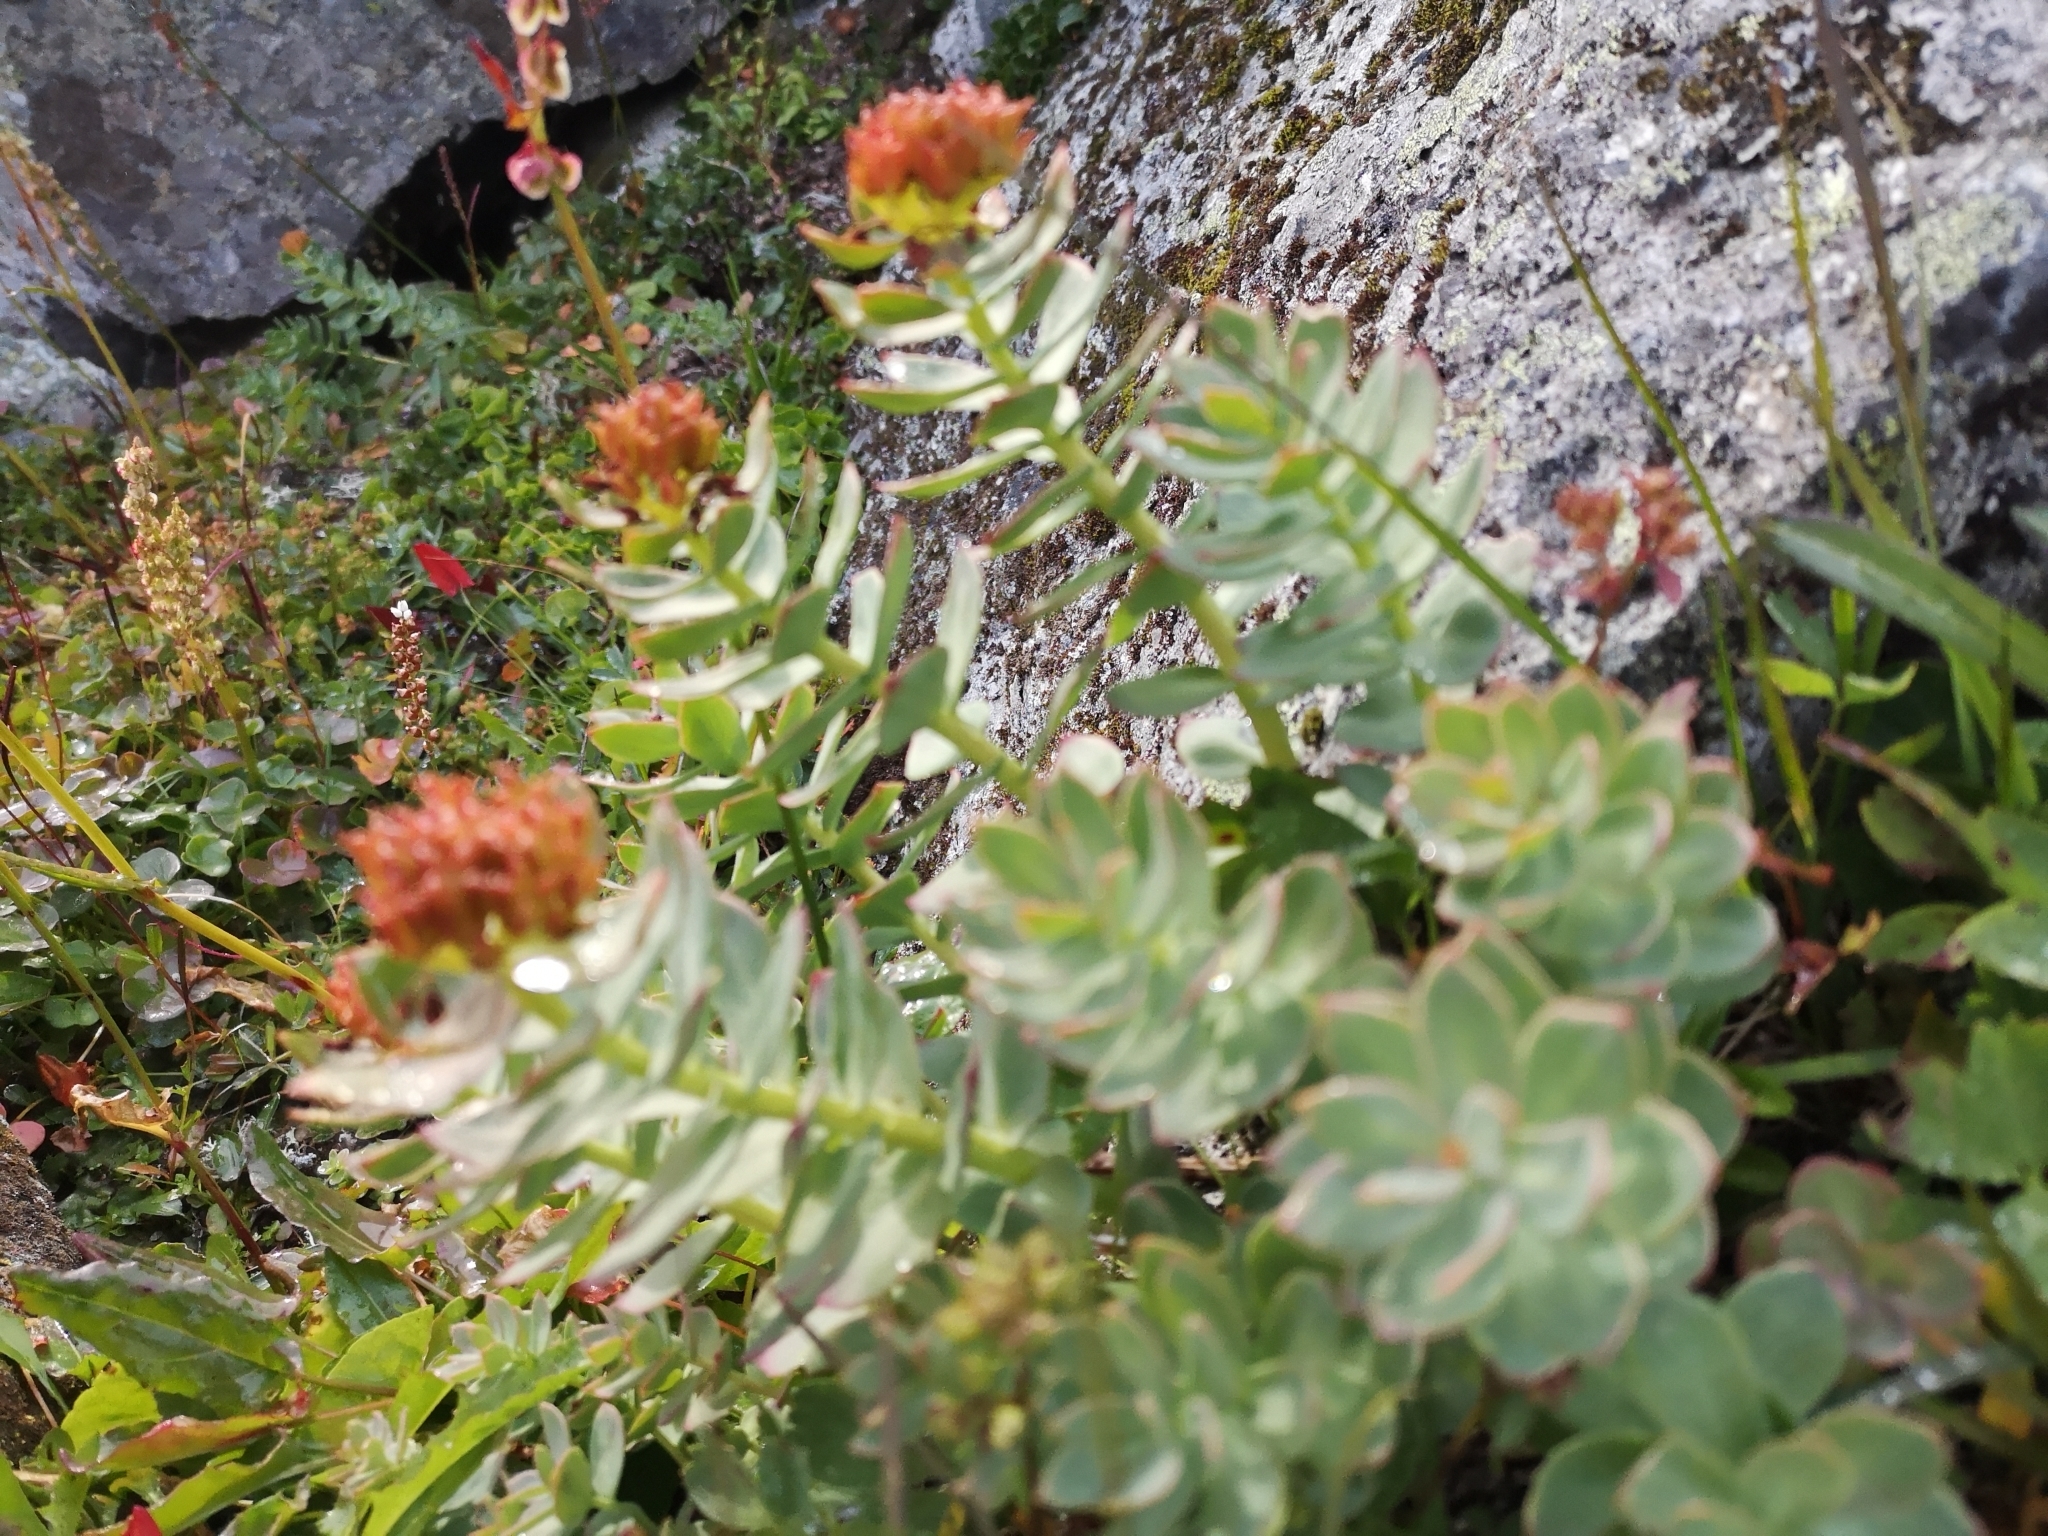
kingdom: Plantae
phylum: Tracheophyta
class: Magnoliopsida
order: Saxifragales
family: Crassulaceae
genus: Rhodiola
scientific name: Rhodiola rosea
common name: Roseroot
